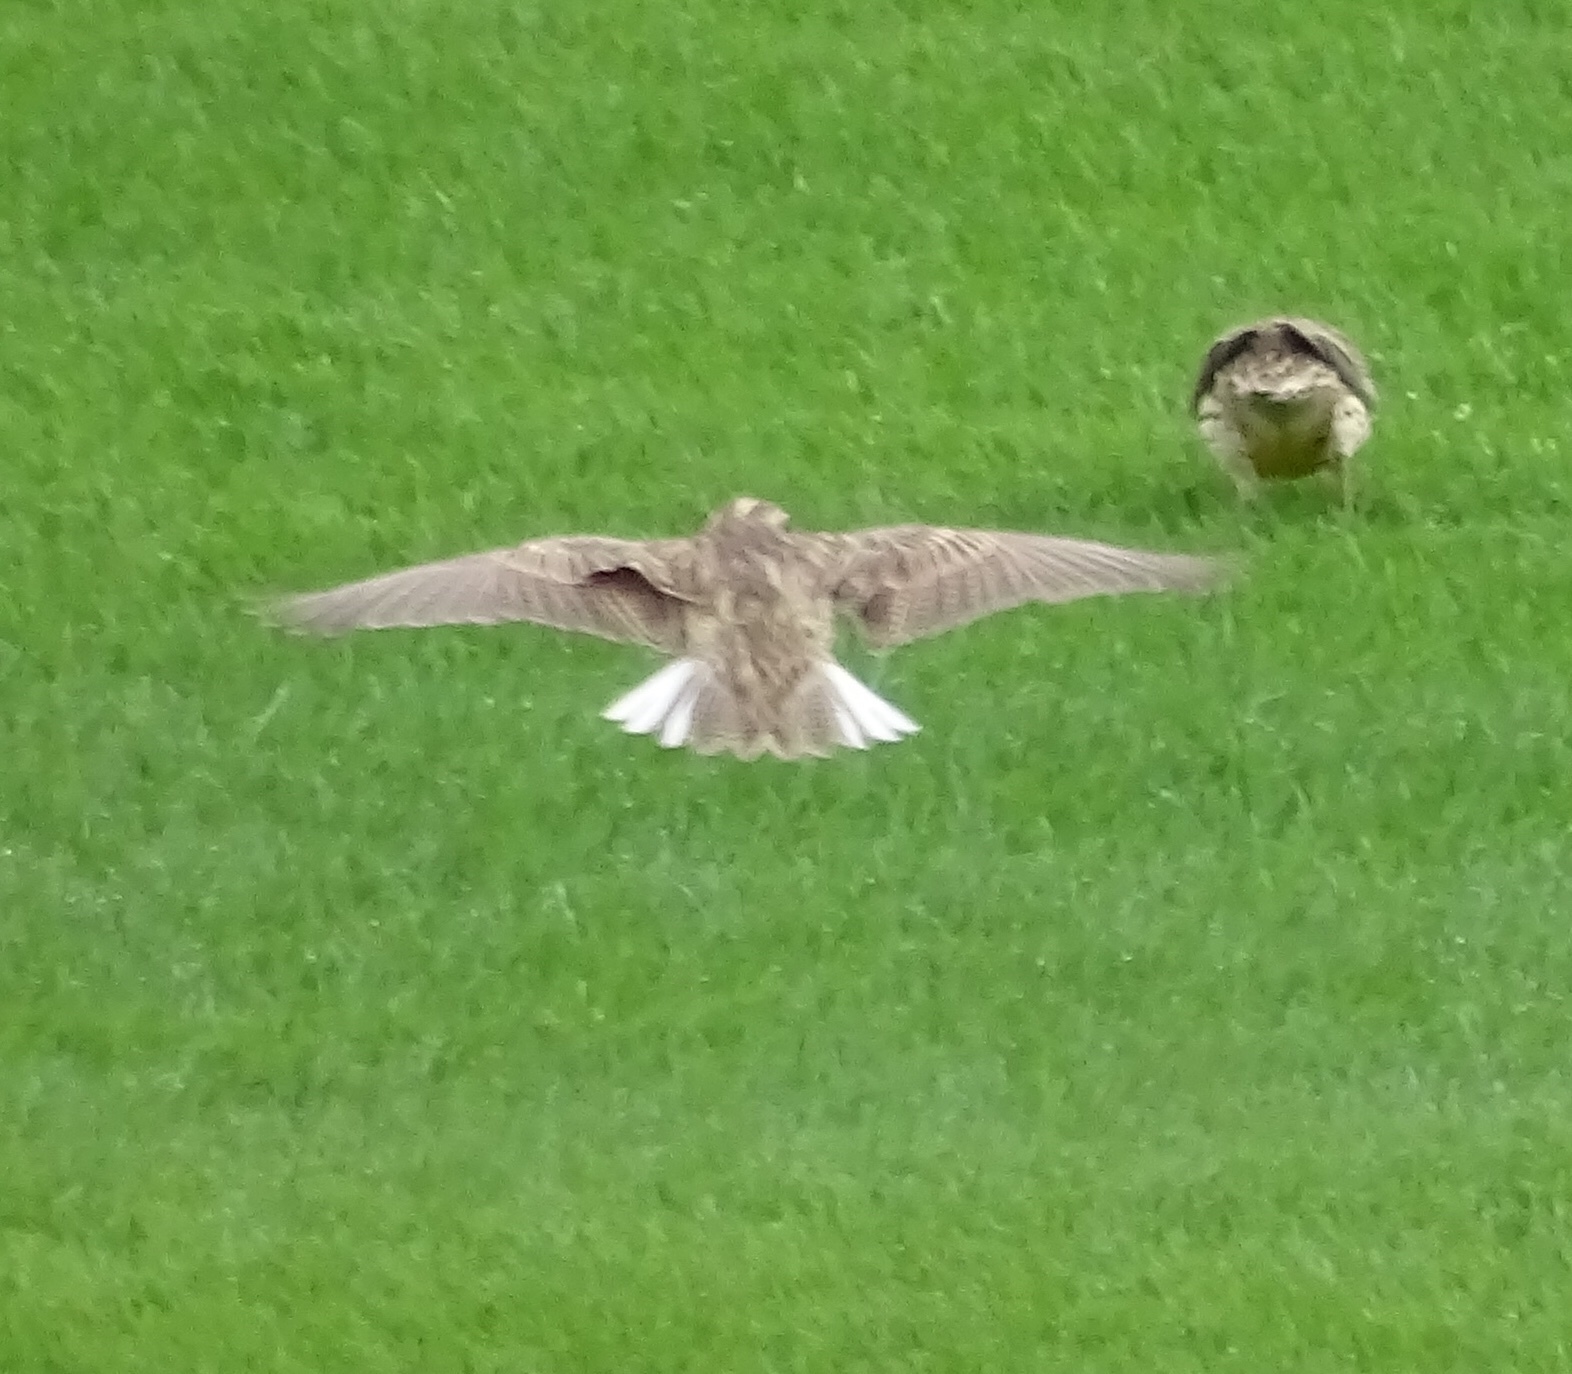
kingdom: Animalia
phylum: Chordata
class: Aves
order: Passeriformes
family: Icteridae
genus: Sturnella
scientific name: Sturnella neglecta
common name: Western meadowlark
